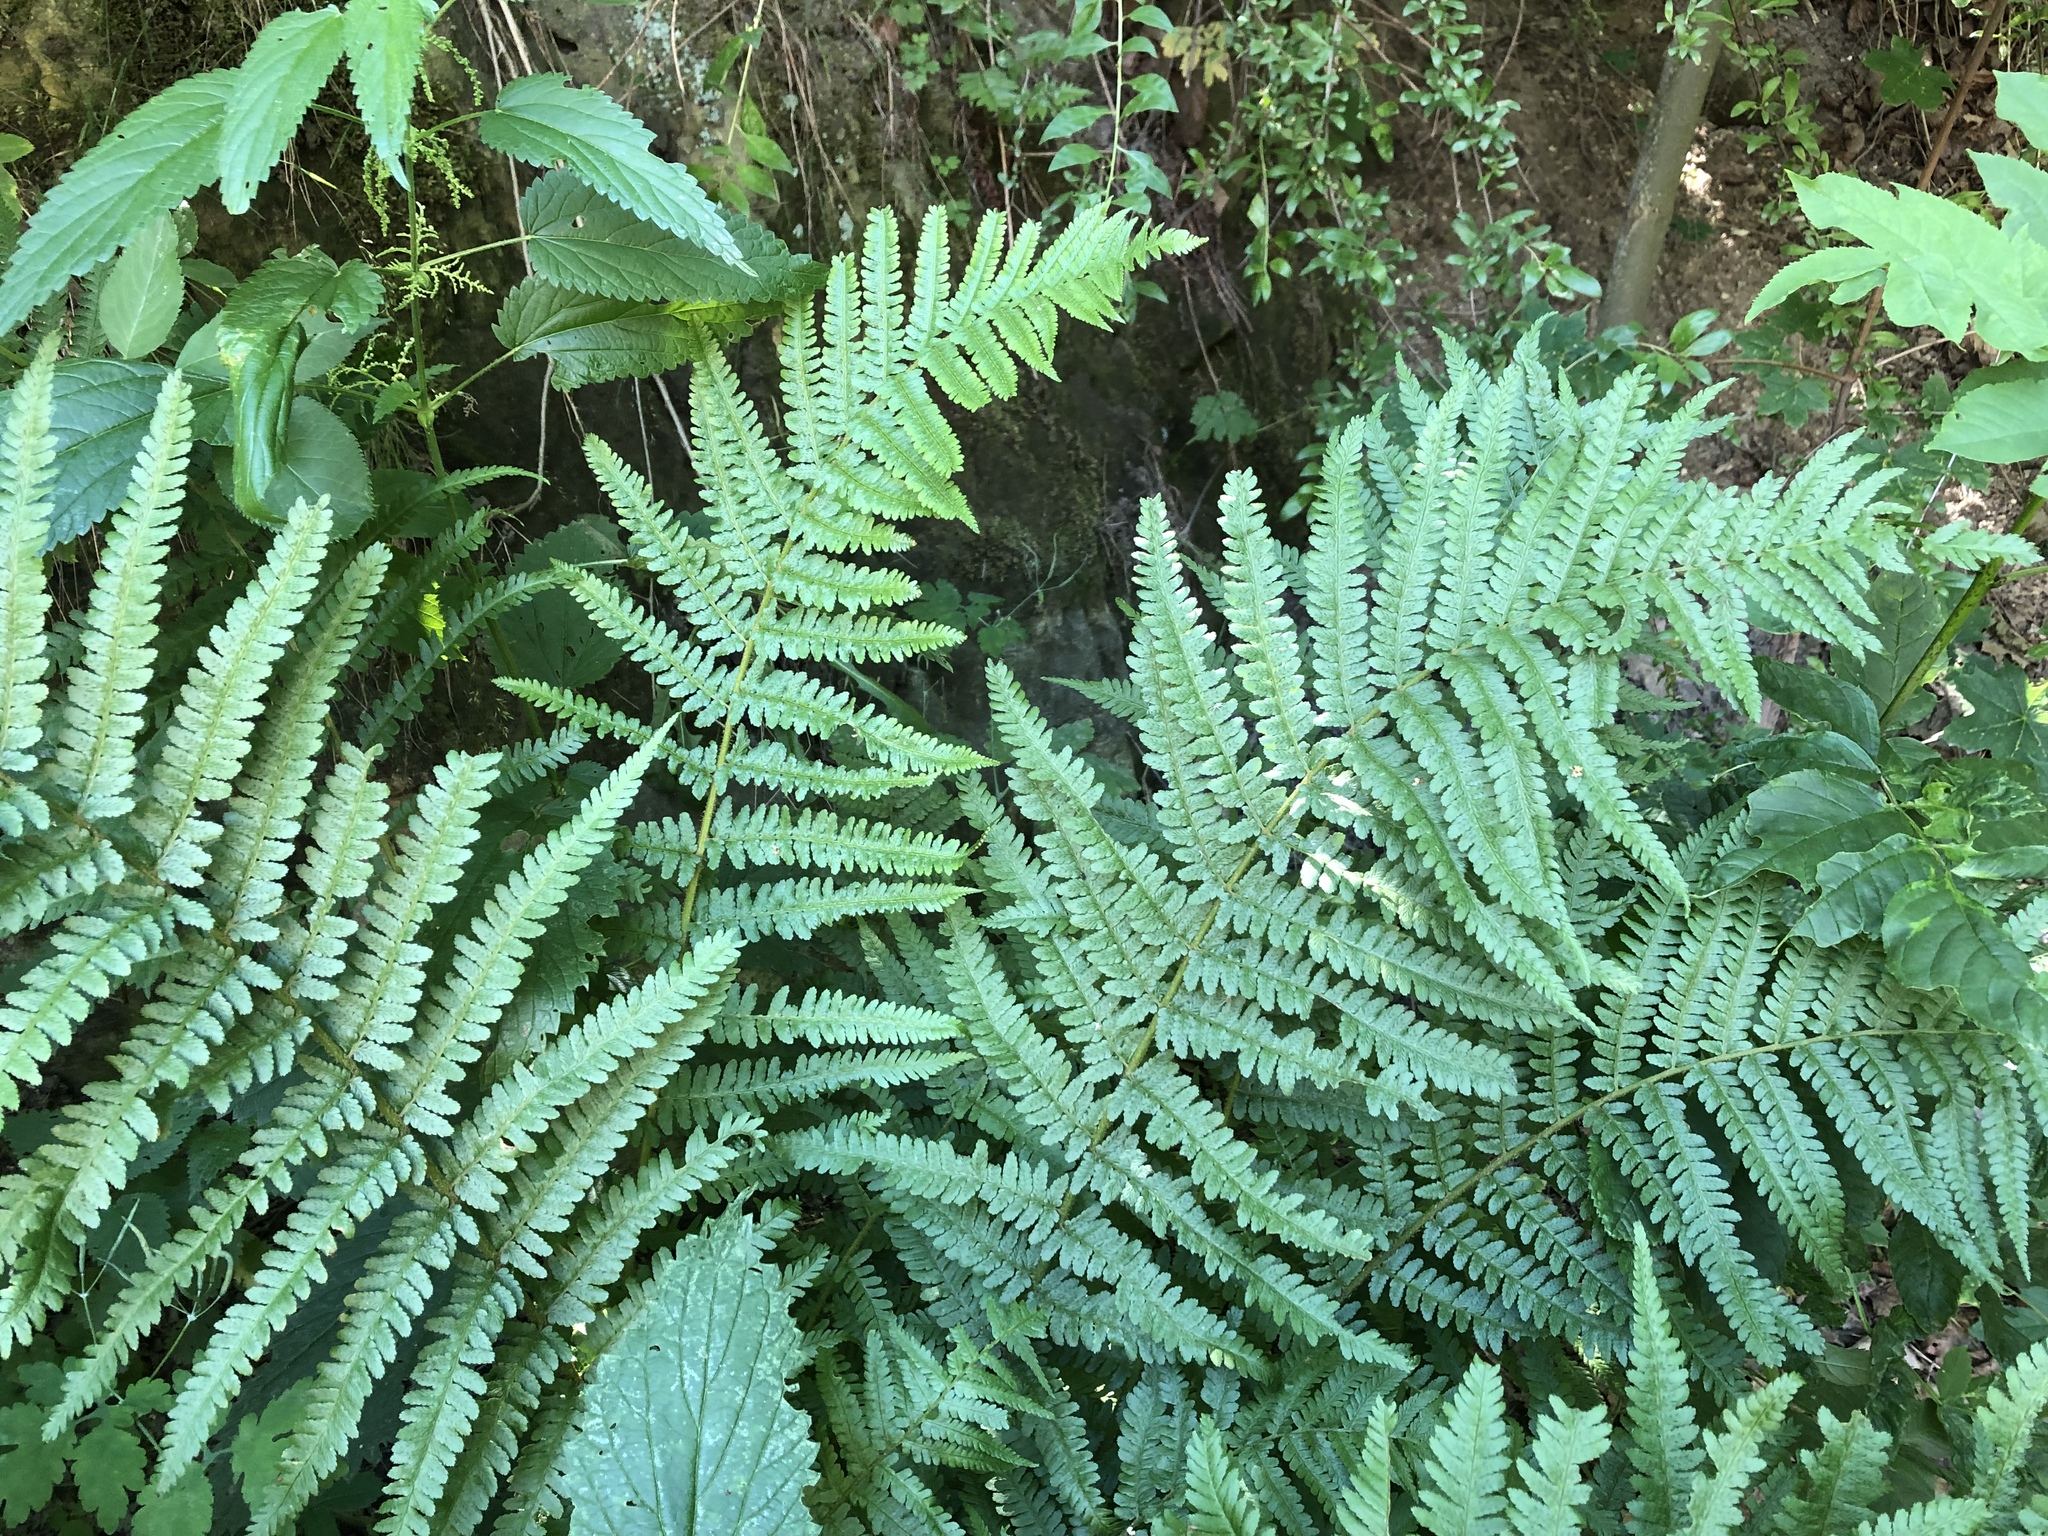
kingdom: Plantae
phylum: Tracheophyta
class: Polypodiopsida
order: Polypodiales
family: Dryopteridaceae
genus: Dryopteris
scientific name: Dryopteris filix-mas
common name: Male fern
